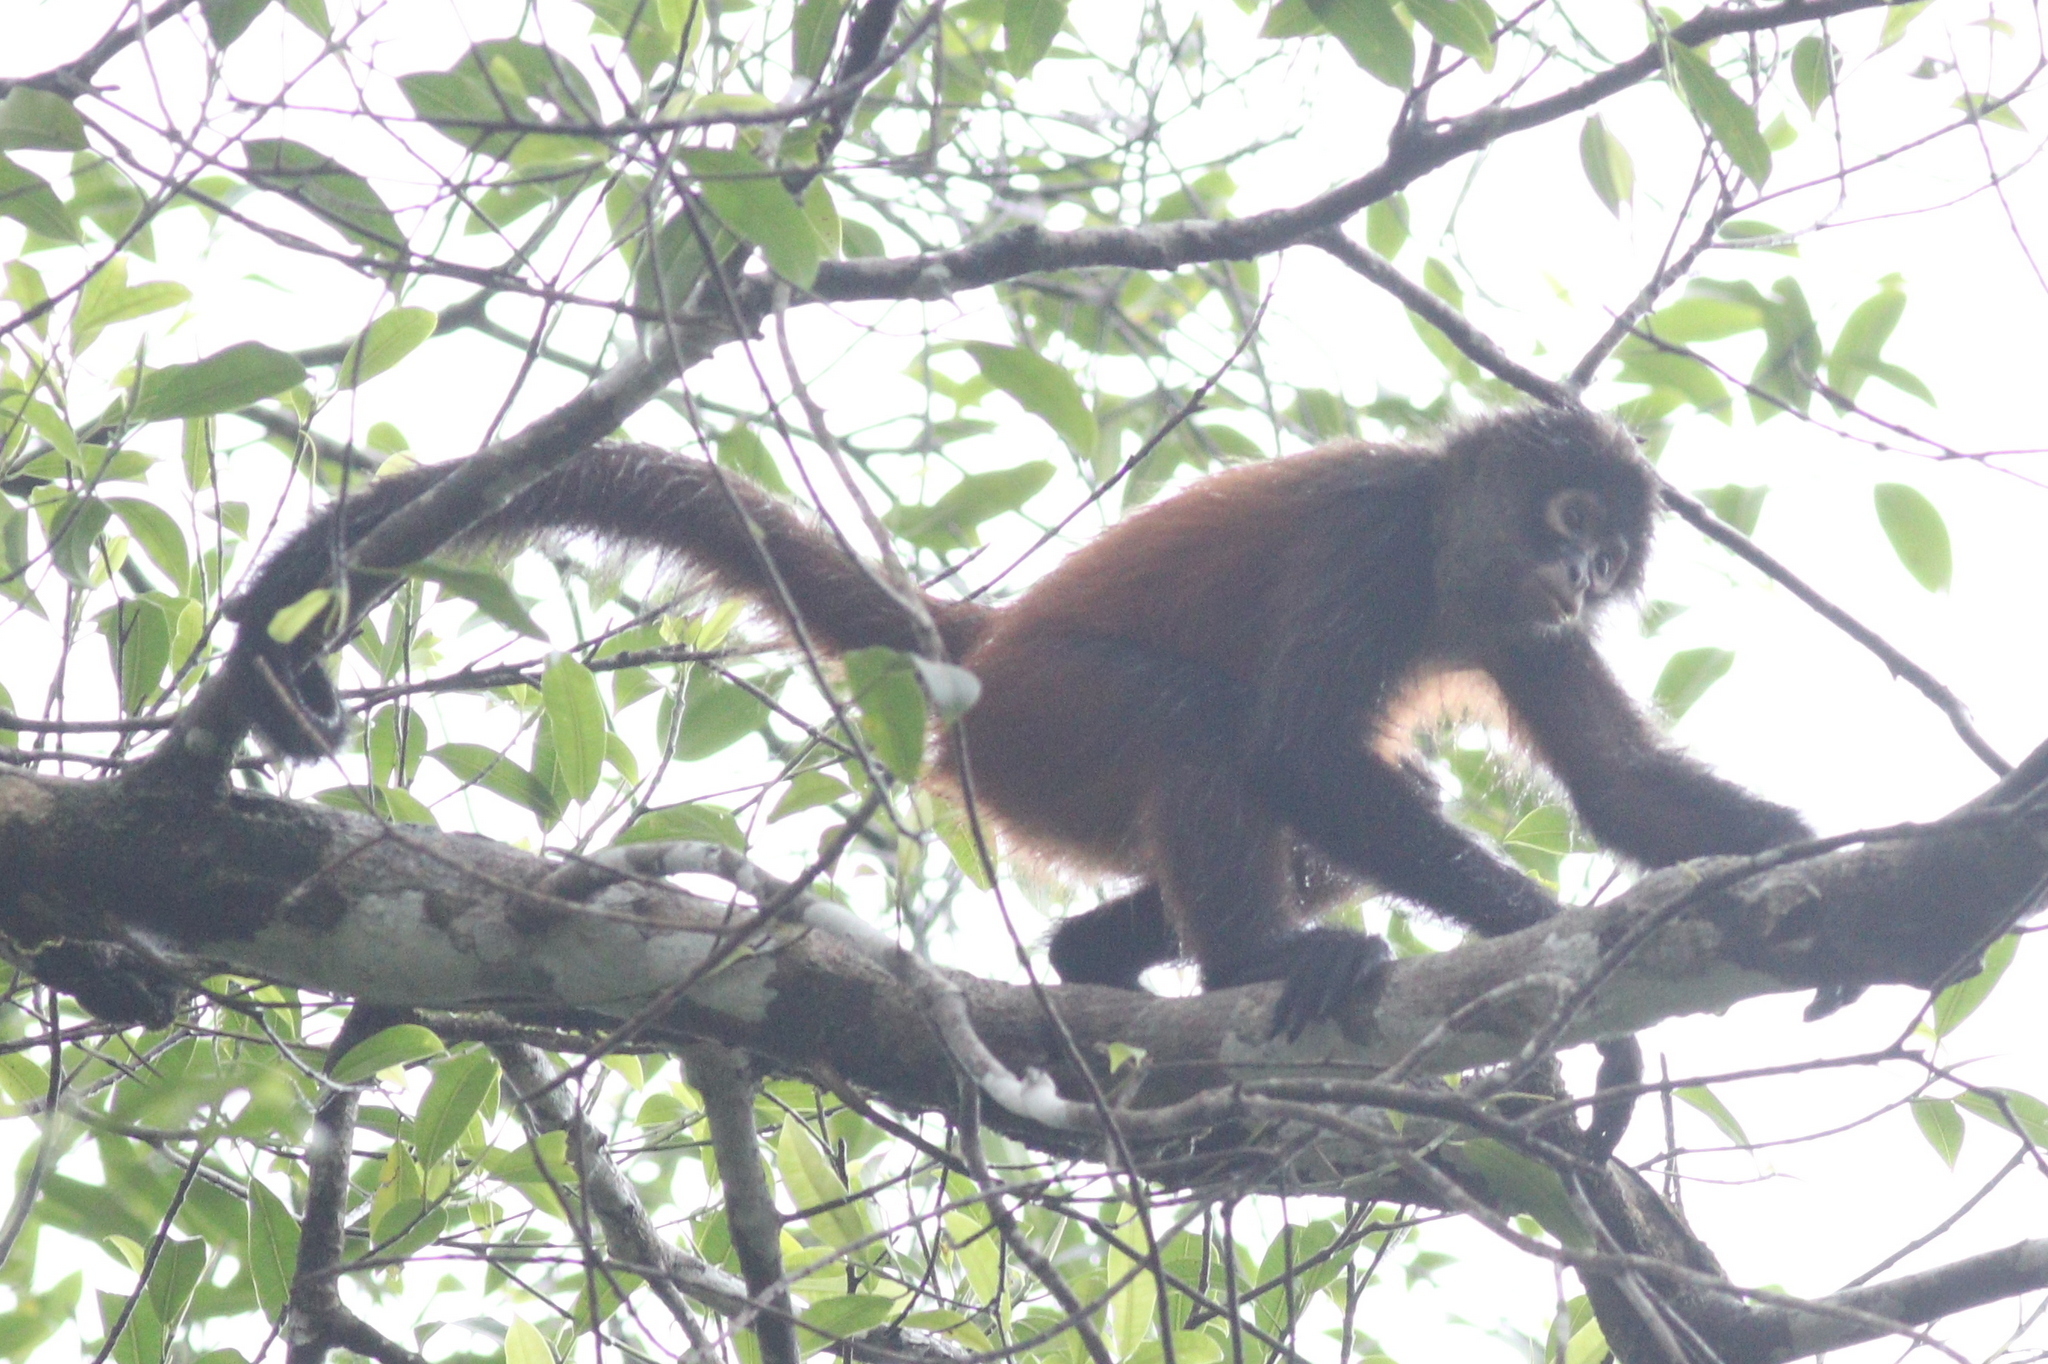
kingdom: Animalia
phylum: Chordata
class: Mammalia
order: Primates
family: Atelidae
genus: Ateles
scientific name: Ateles geoffroyi
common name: Black-handed spider monkey
